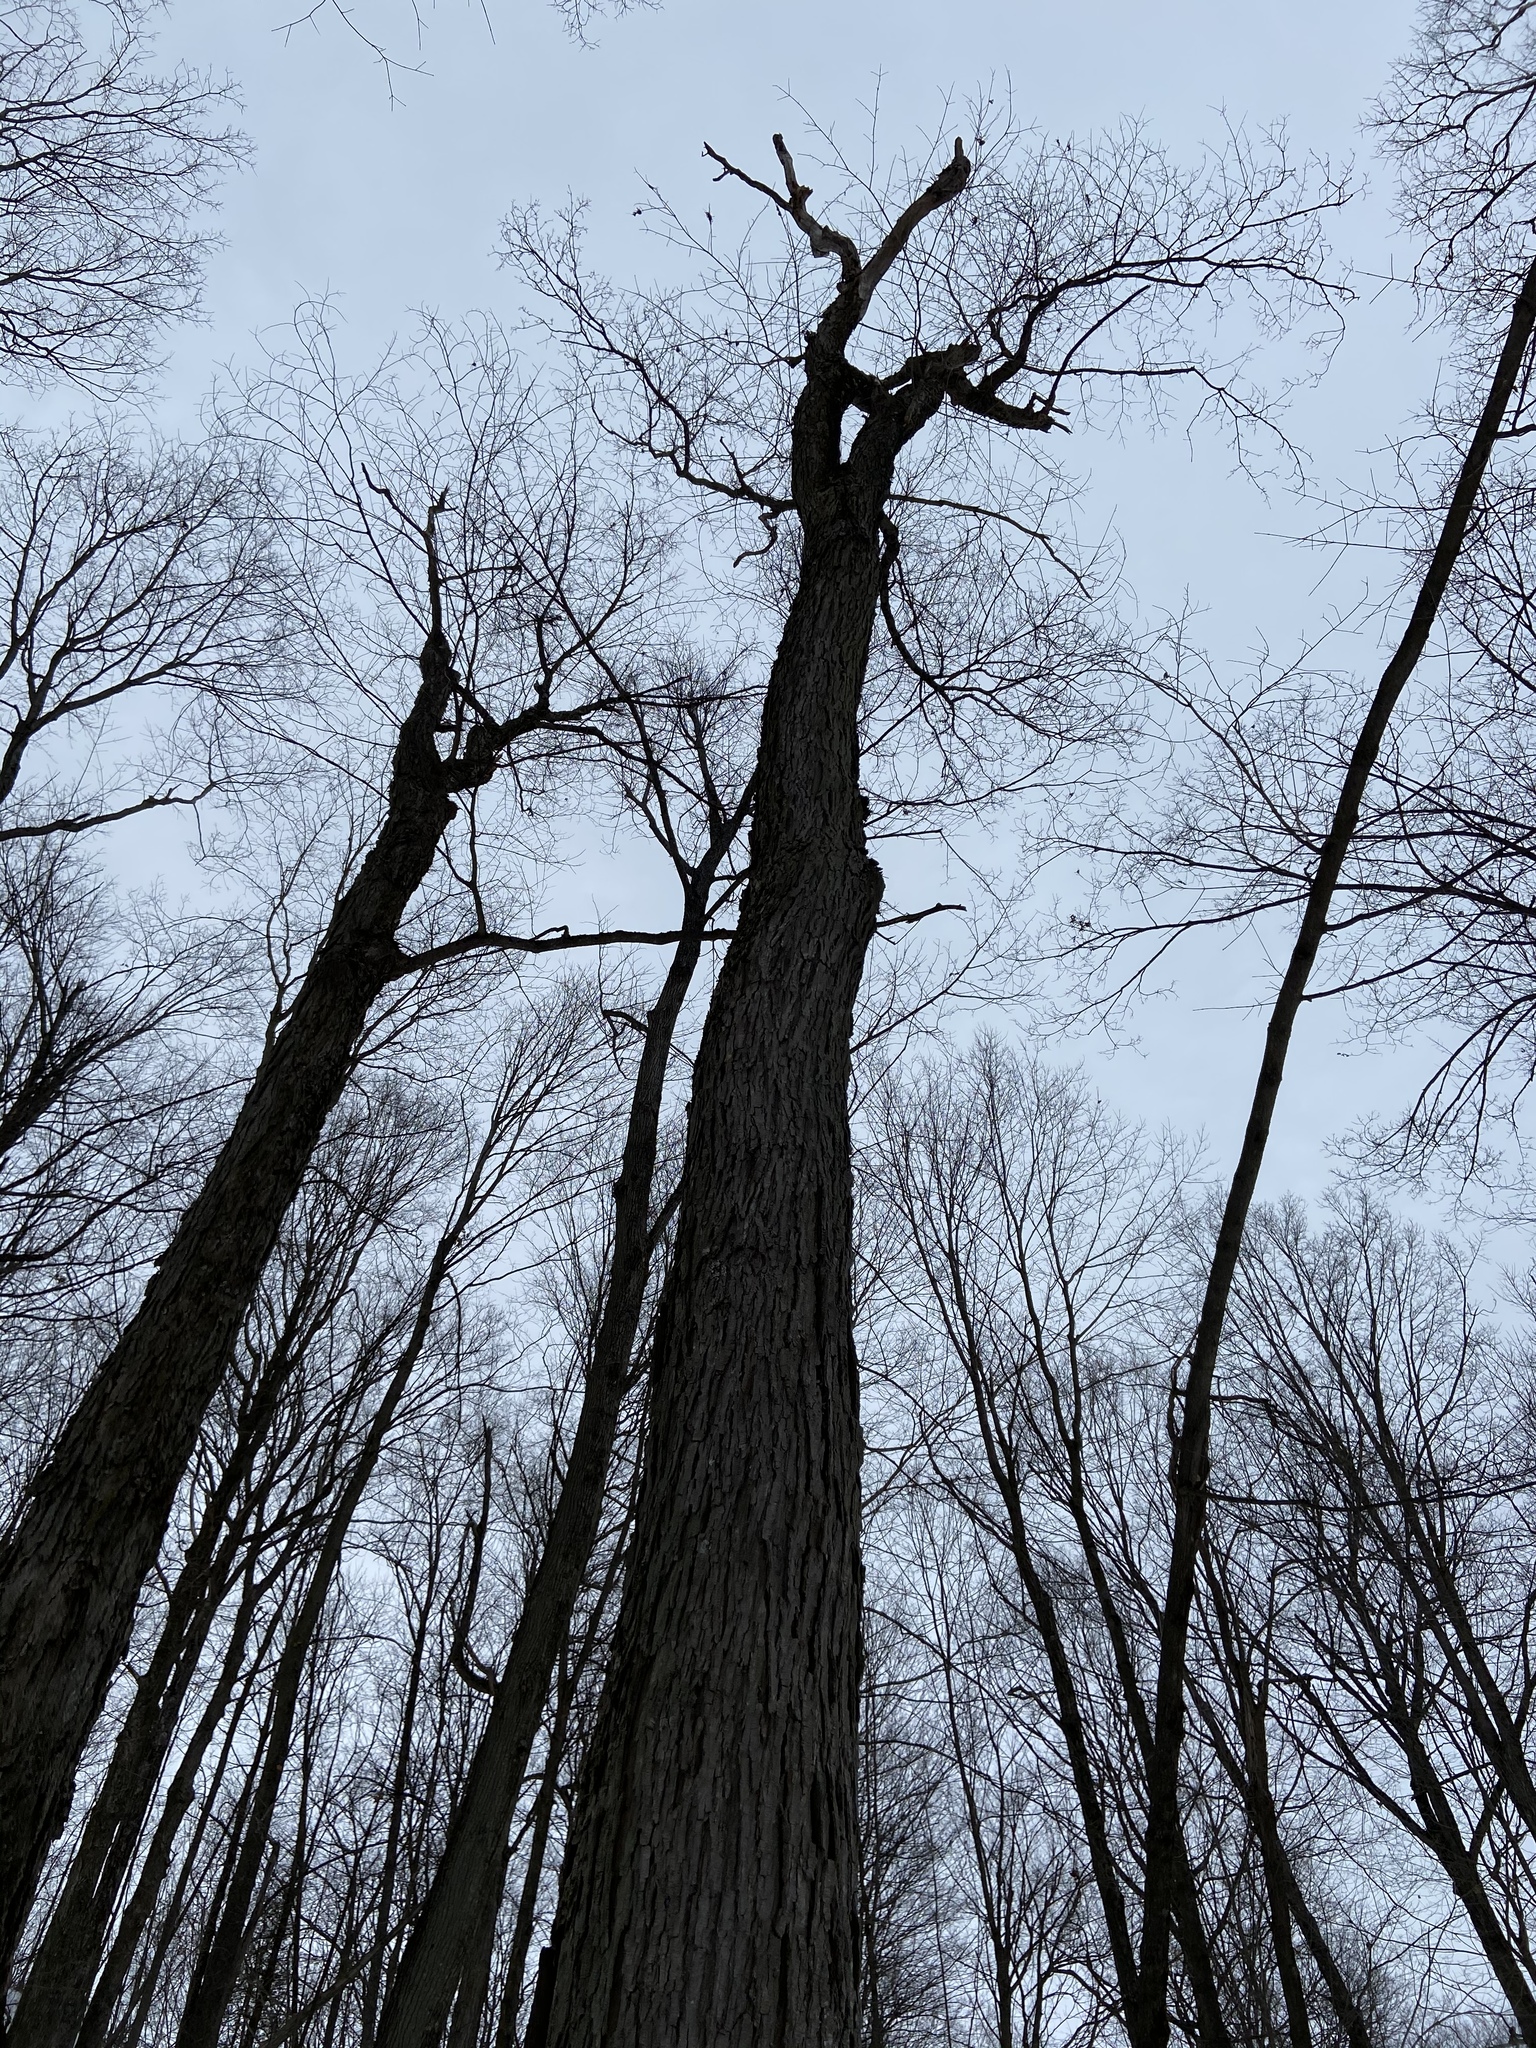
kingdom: Plantae
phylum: Tracheophyta
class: Magnoliopsida
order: Sapindales
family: Sapindaceae
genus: Acer
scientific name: Acer saccharum
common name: Sugar maple
